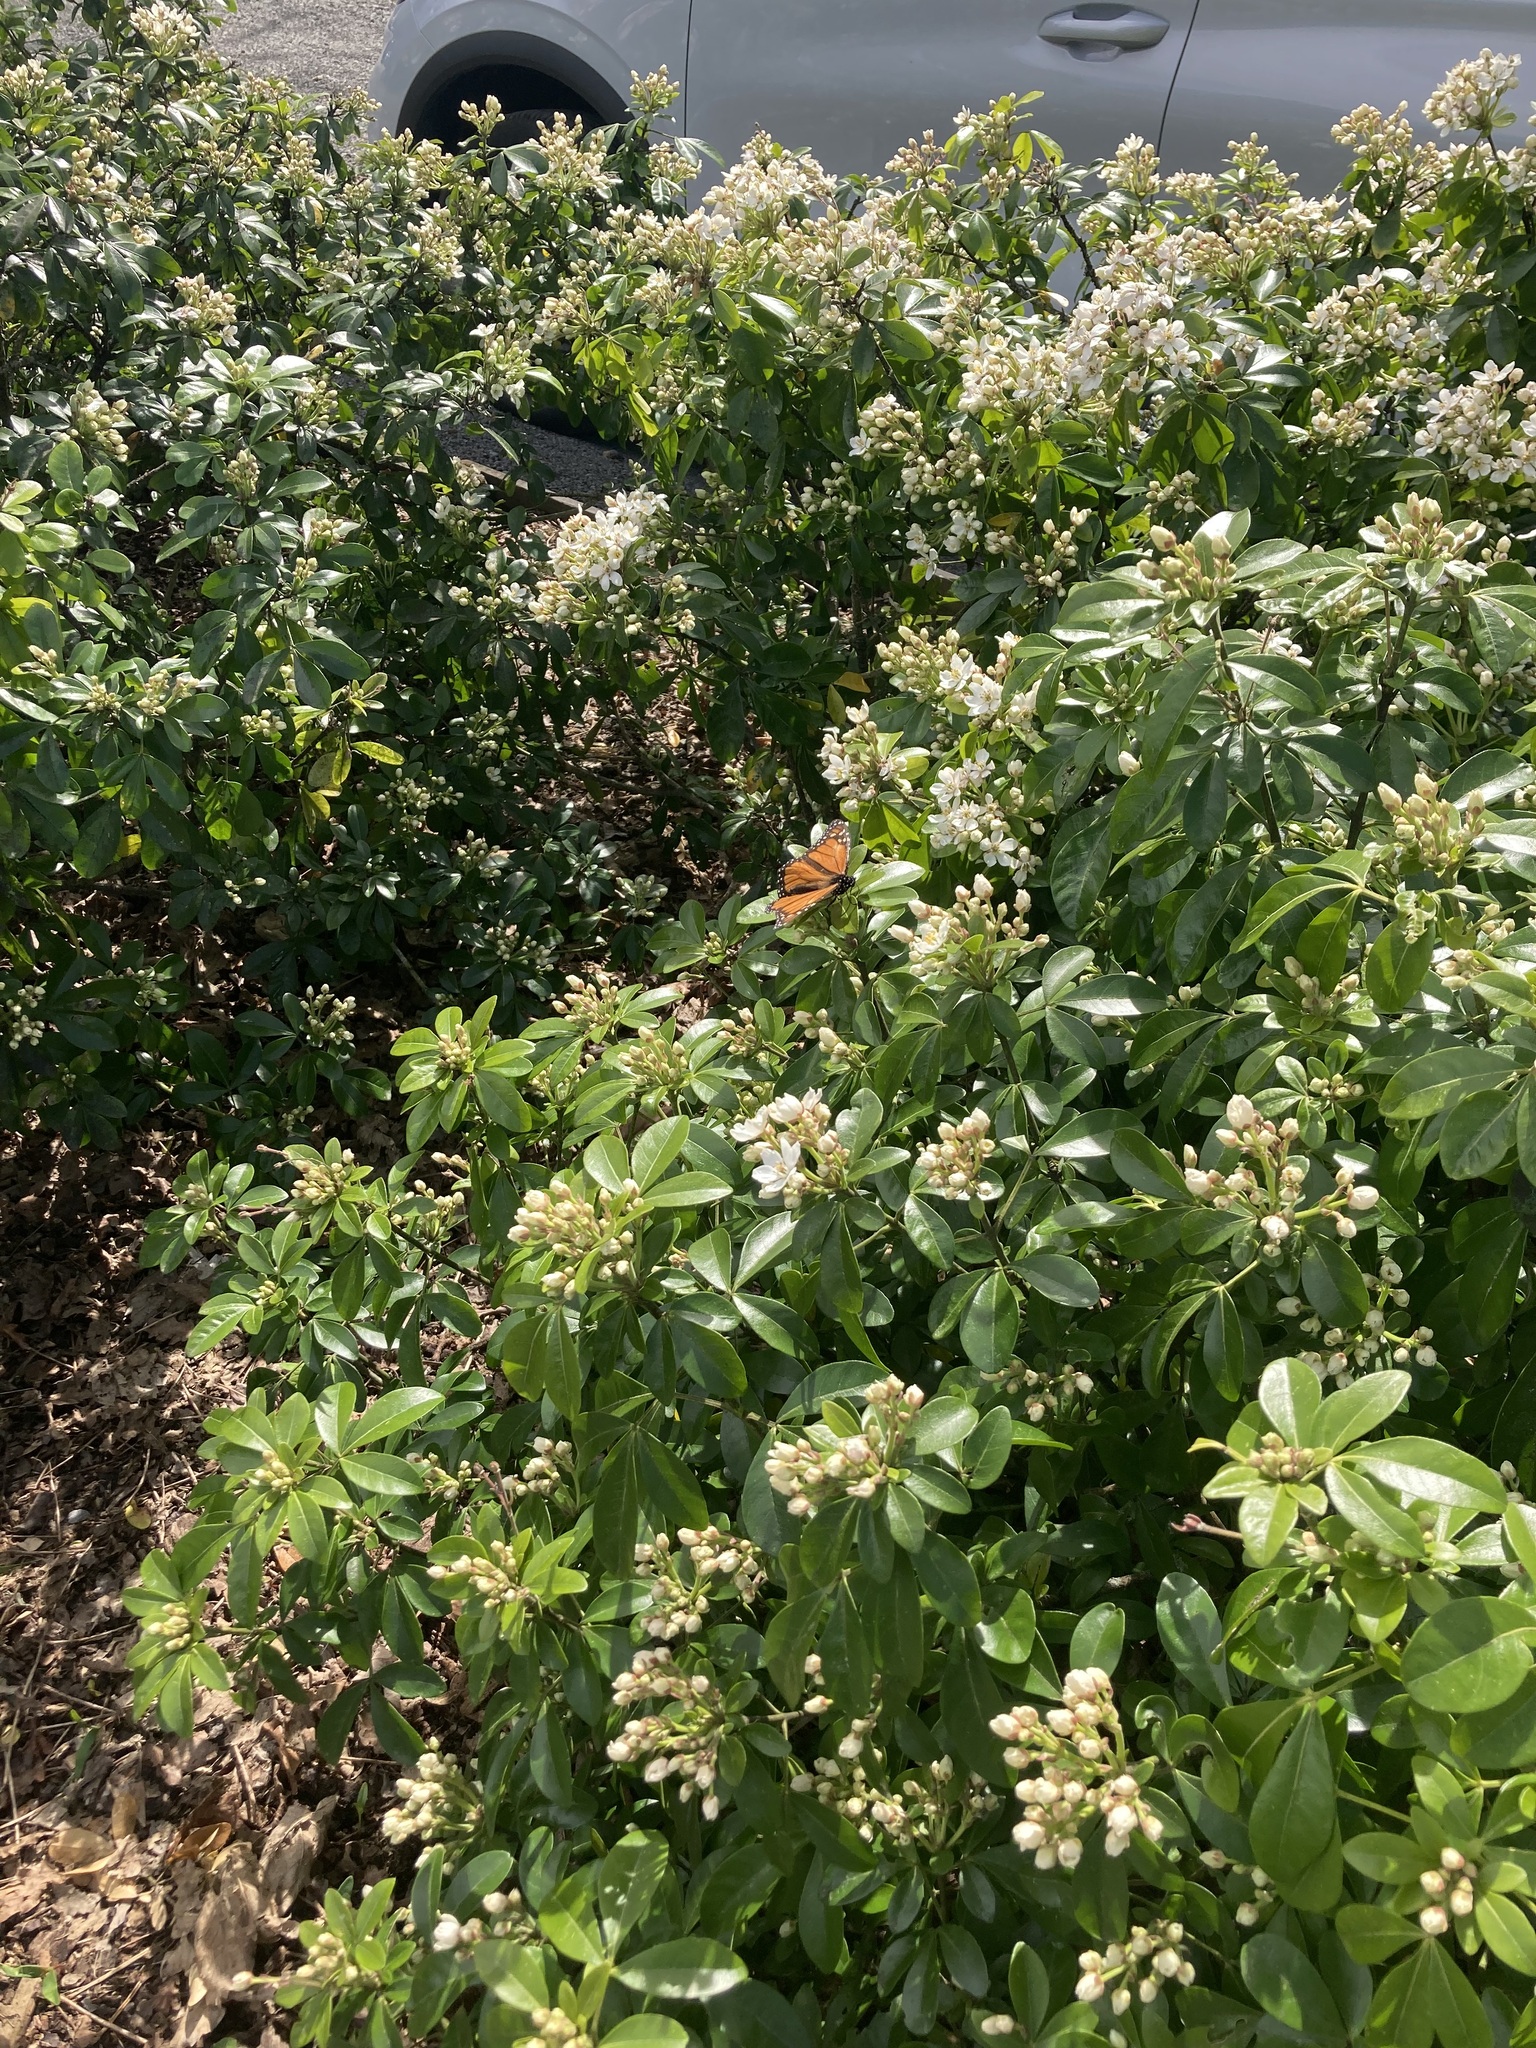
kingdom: Animalia
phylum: Arthropoda
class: Insecta
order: Lepidoptera
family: Nymphalidae
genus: Danaus
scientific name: Danaus plexippus
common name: Monarch
